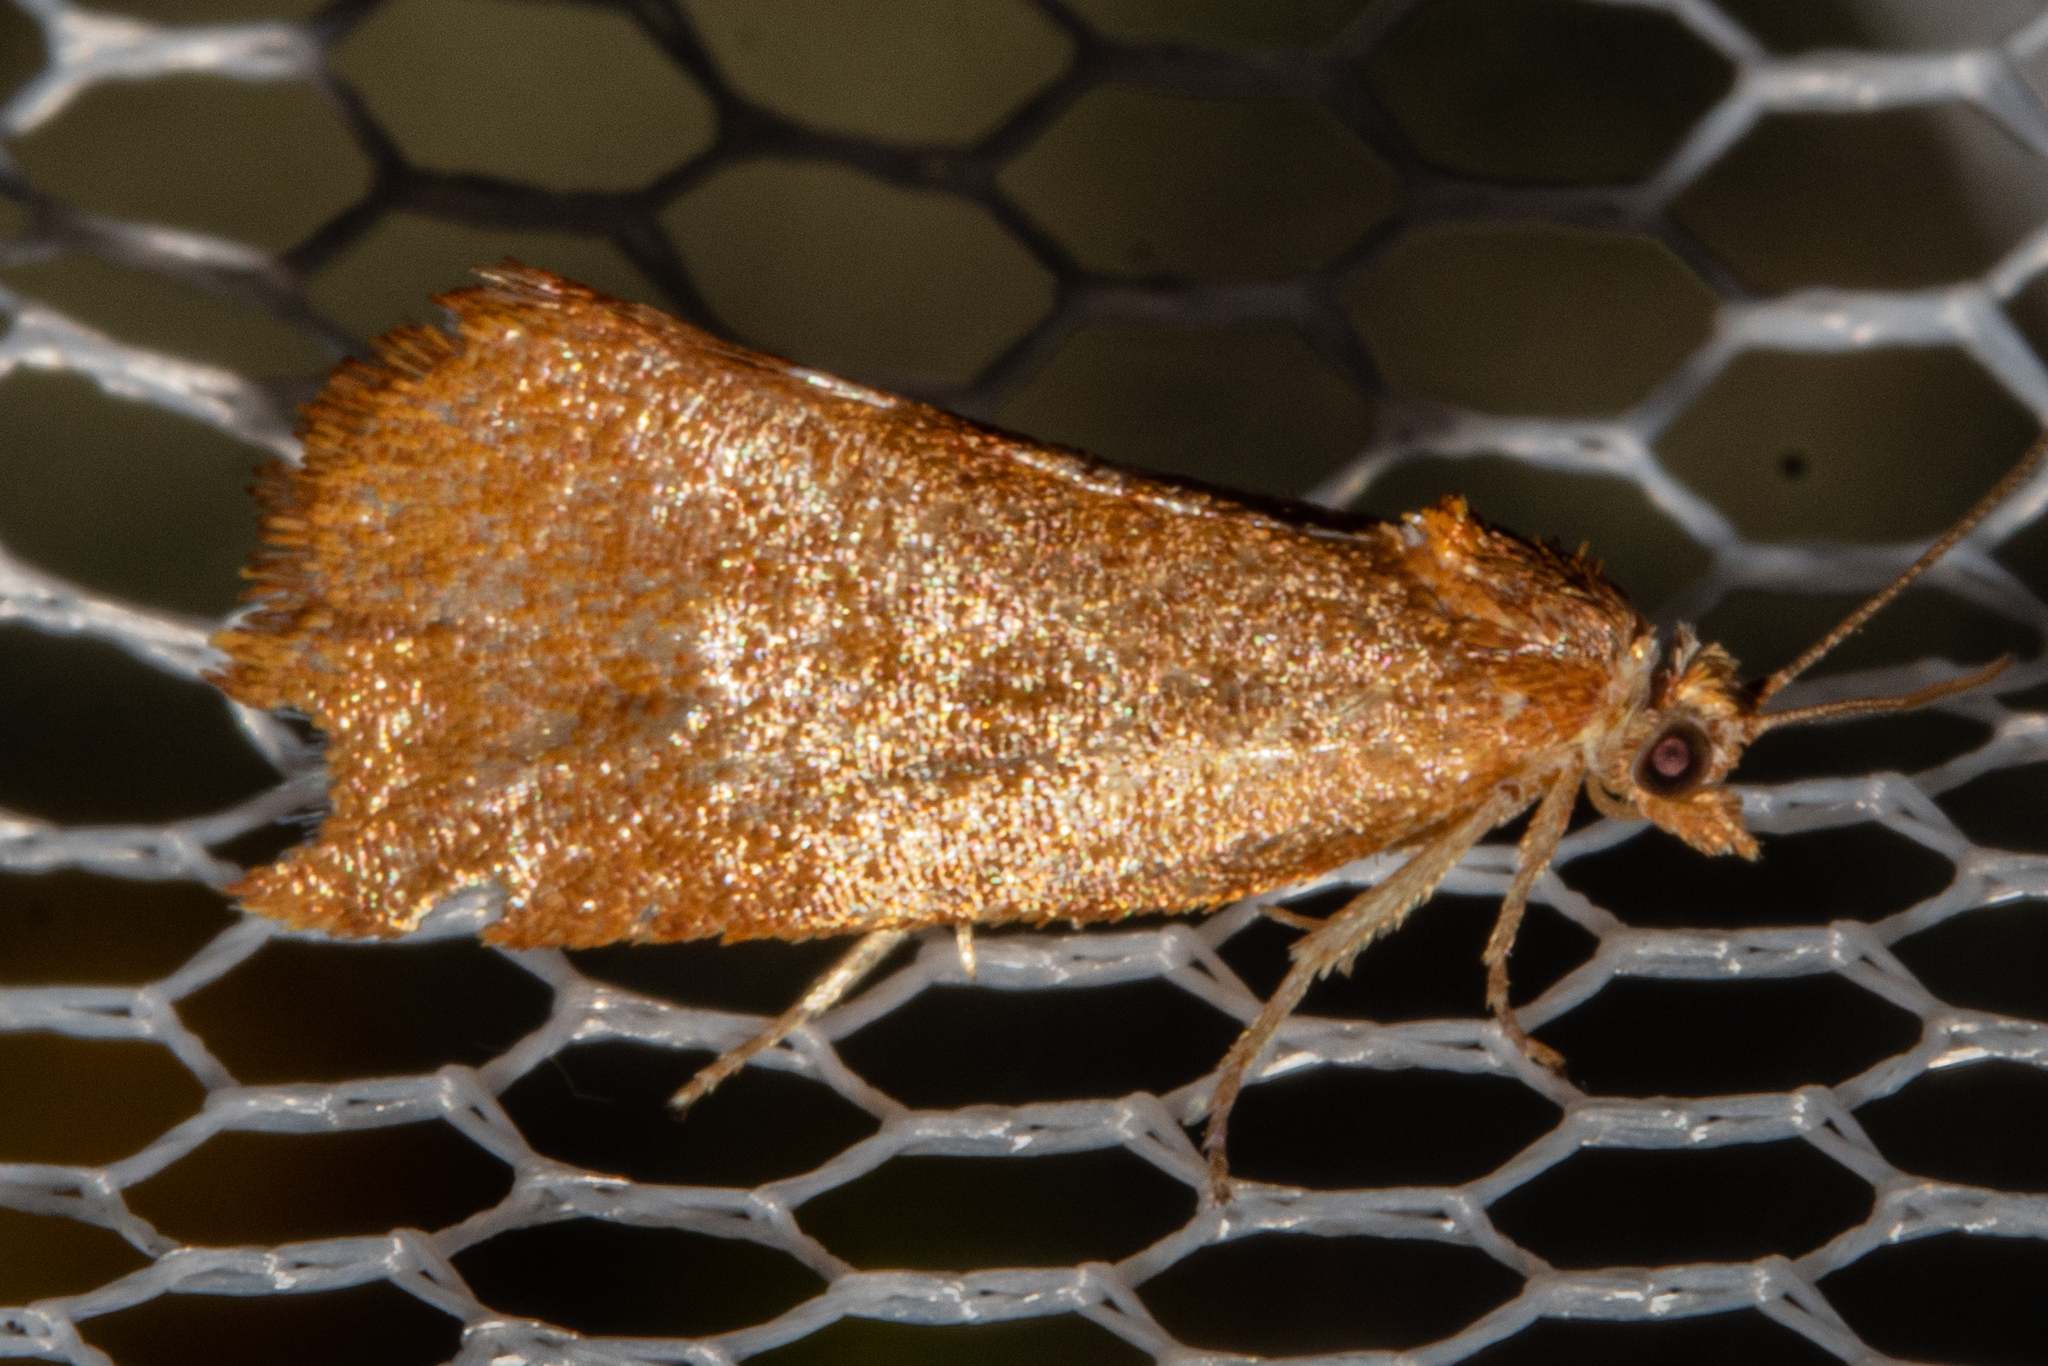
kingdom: Animalia
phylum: Arthropoda
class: Insecta
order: Lepidoptera
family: Tortricidae
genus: Pyrgotis
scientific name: Pyrgotis pyramidias
